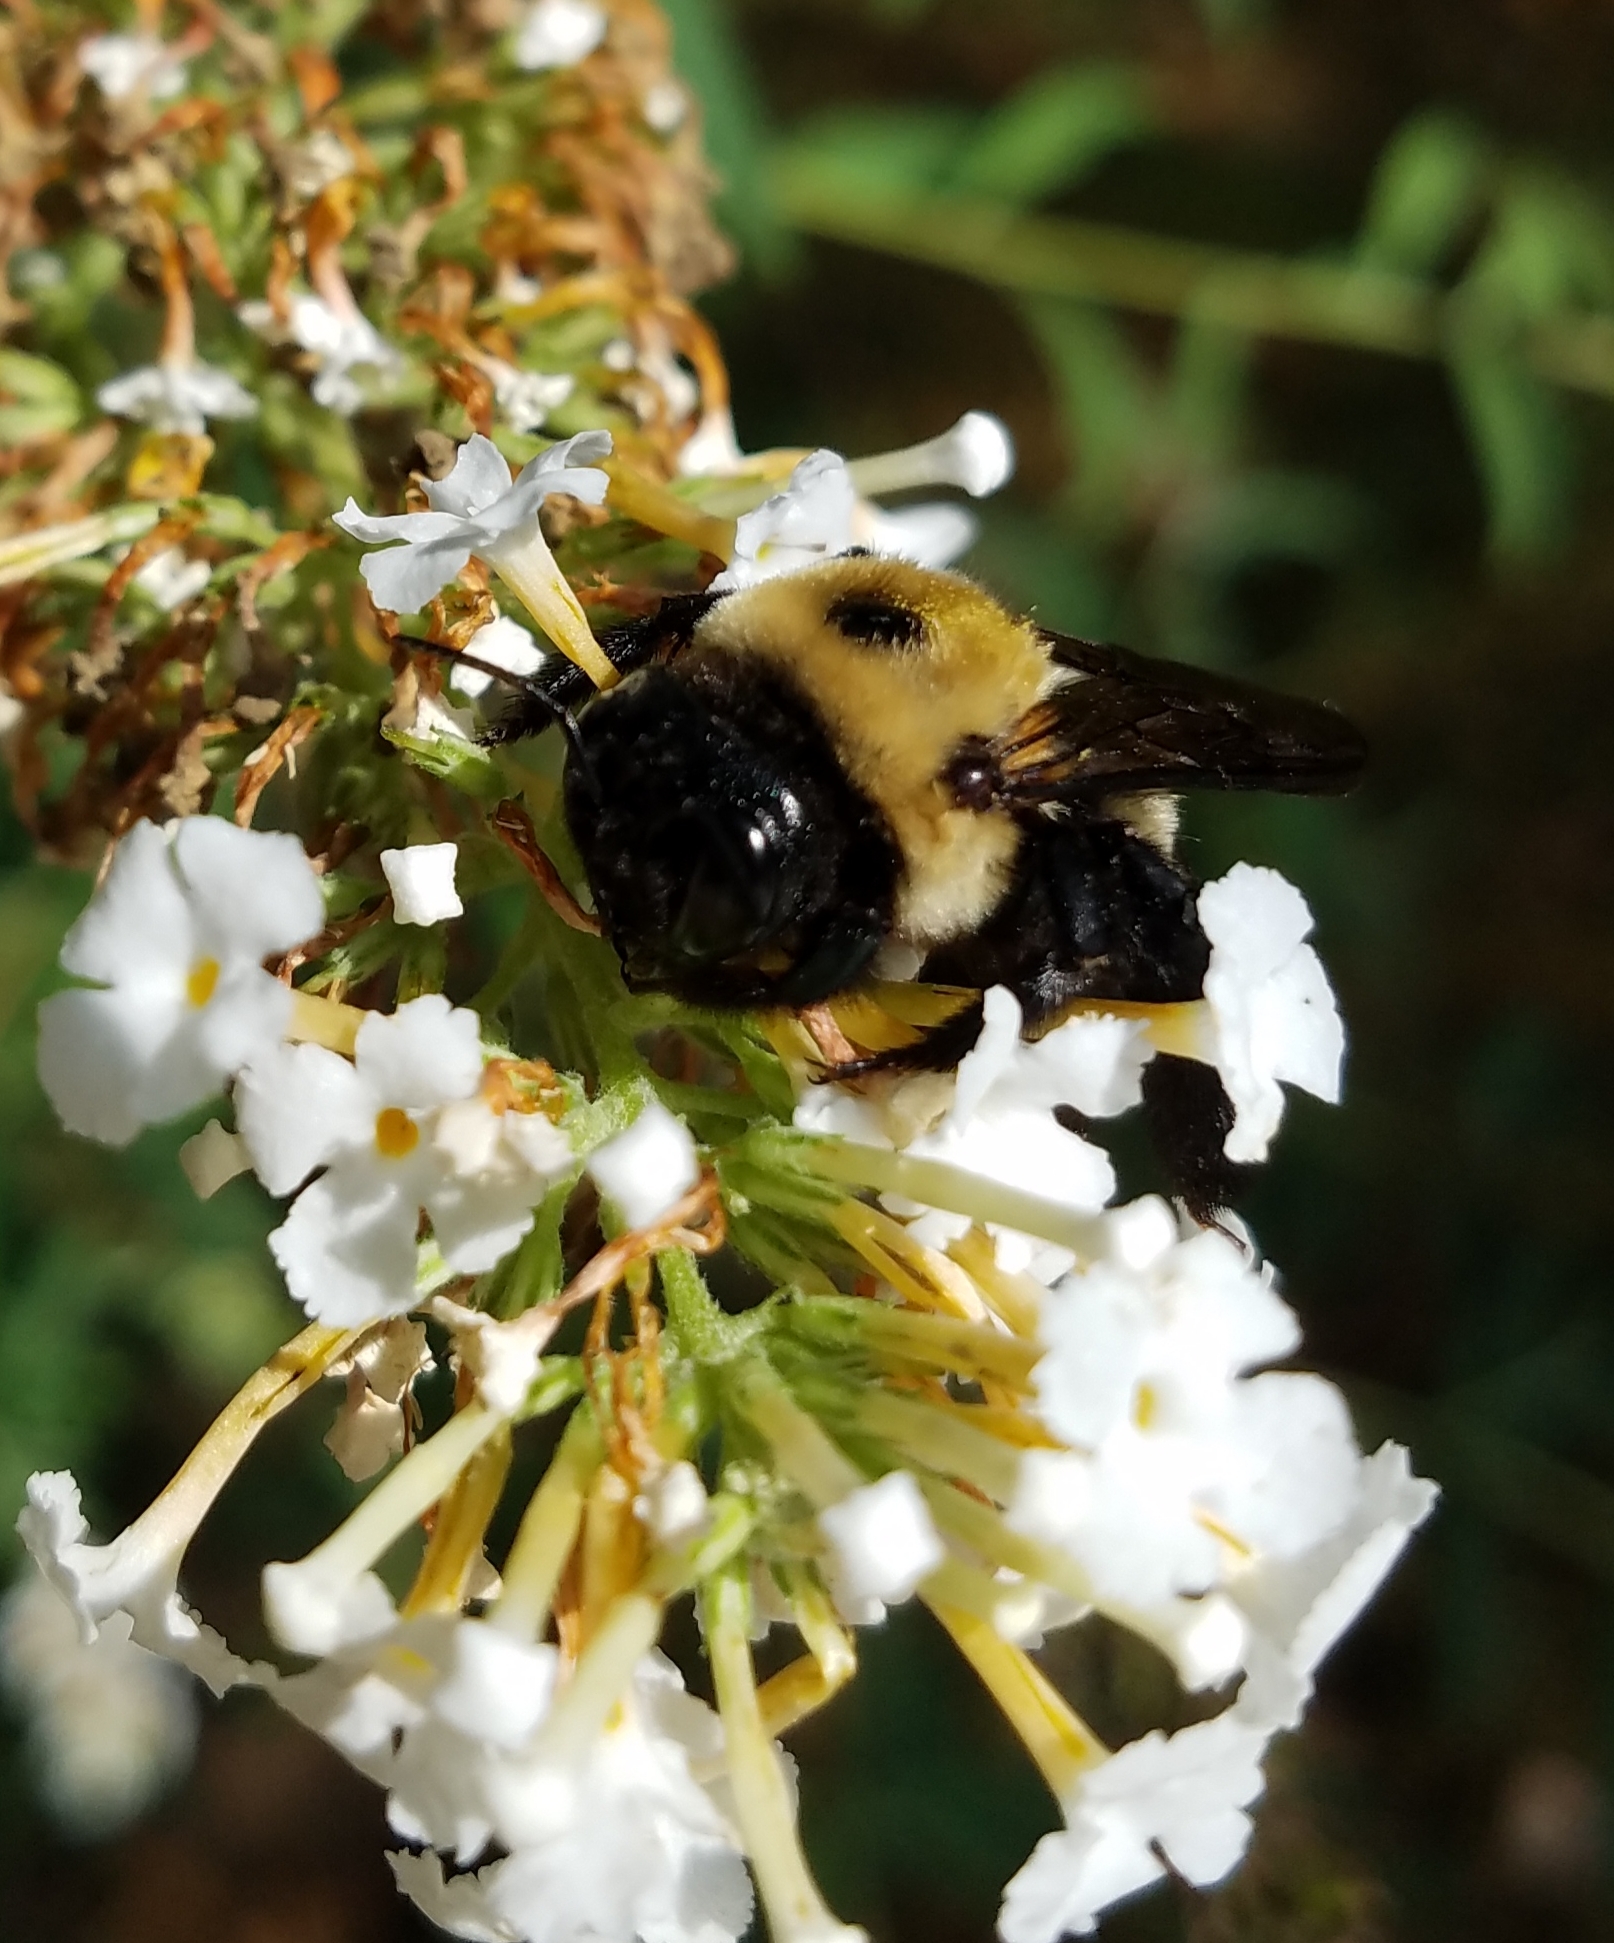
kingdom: Animalia
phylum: Arthropoda
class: Insecta
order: Hymenoptera
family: Apidae
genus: Xylocopa
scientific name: Xylocopa virginica
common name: Carpenter bee
